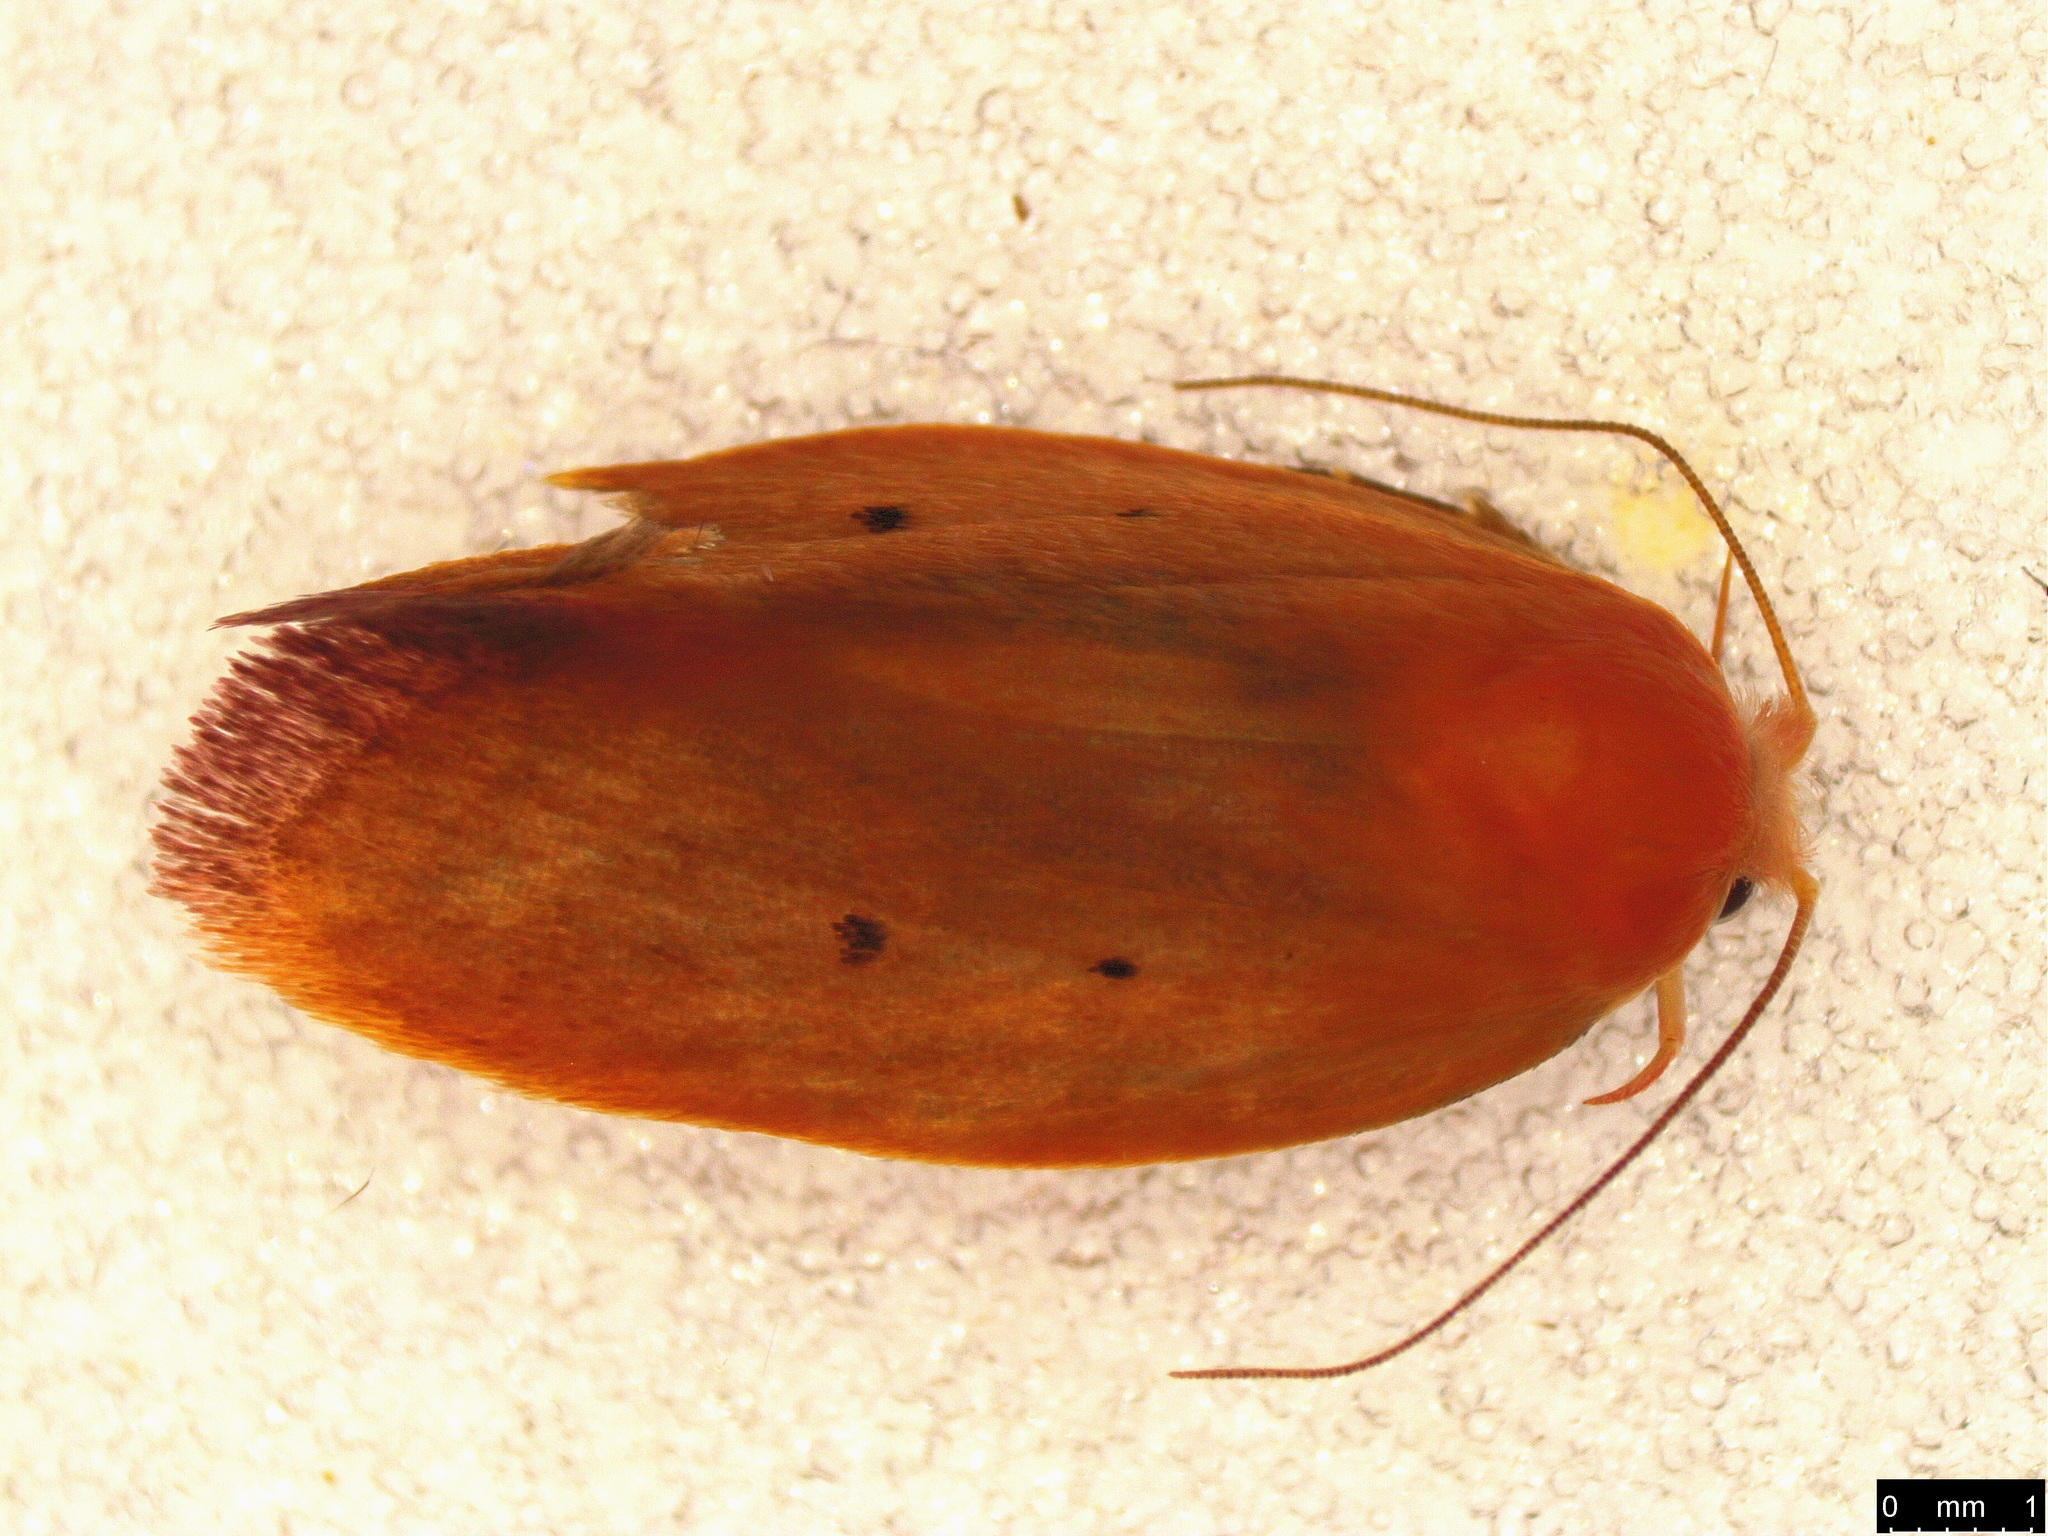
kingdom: Animalia
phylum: Arthropoda
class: Insecta
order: Lepidoptera
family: Oecophoridae
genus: Ptyoptila
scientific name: Ptyoptila matutinella
